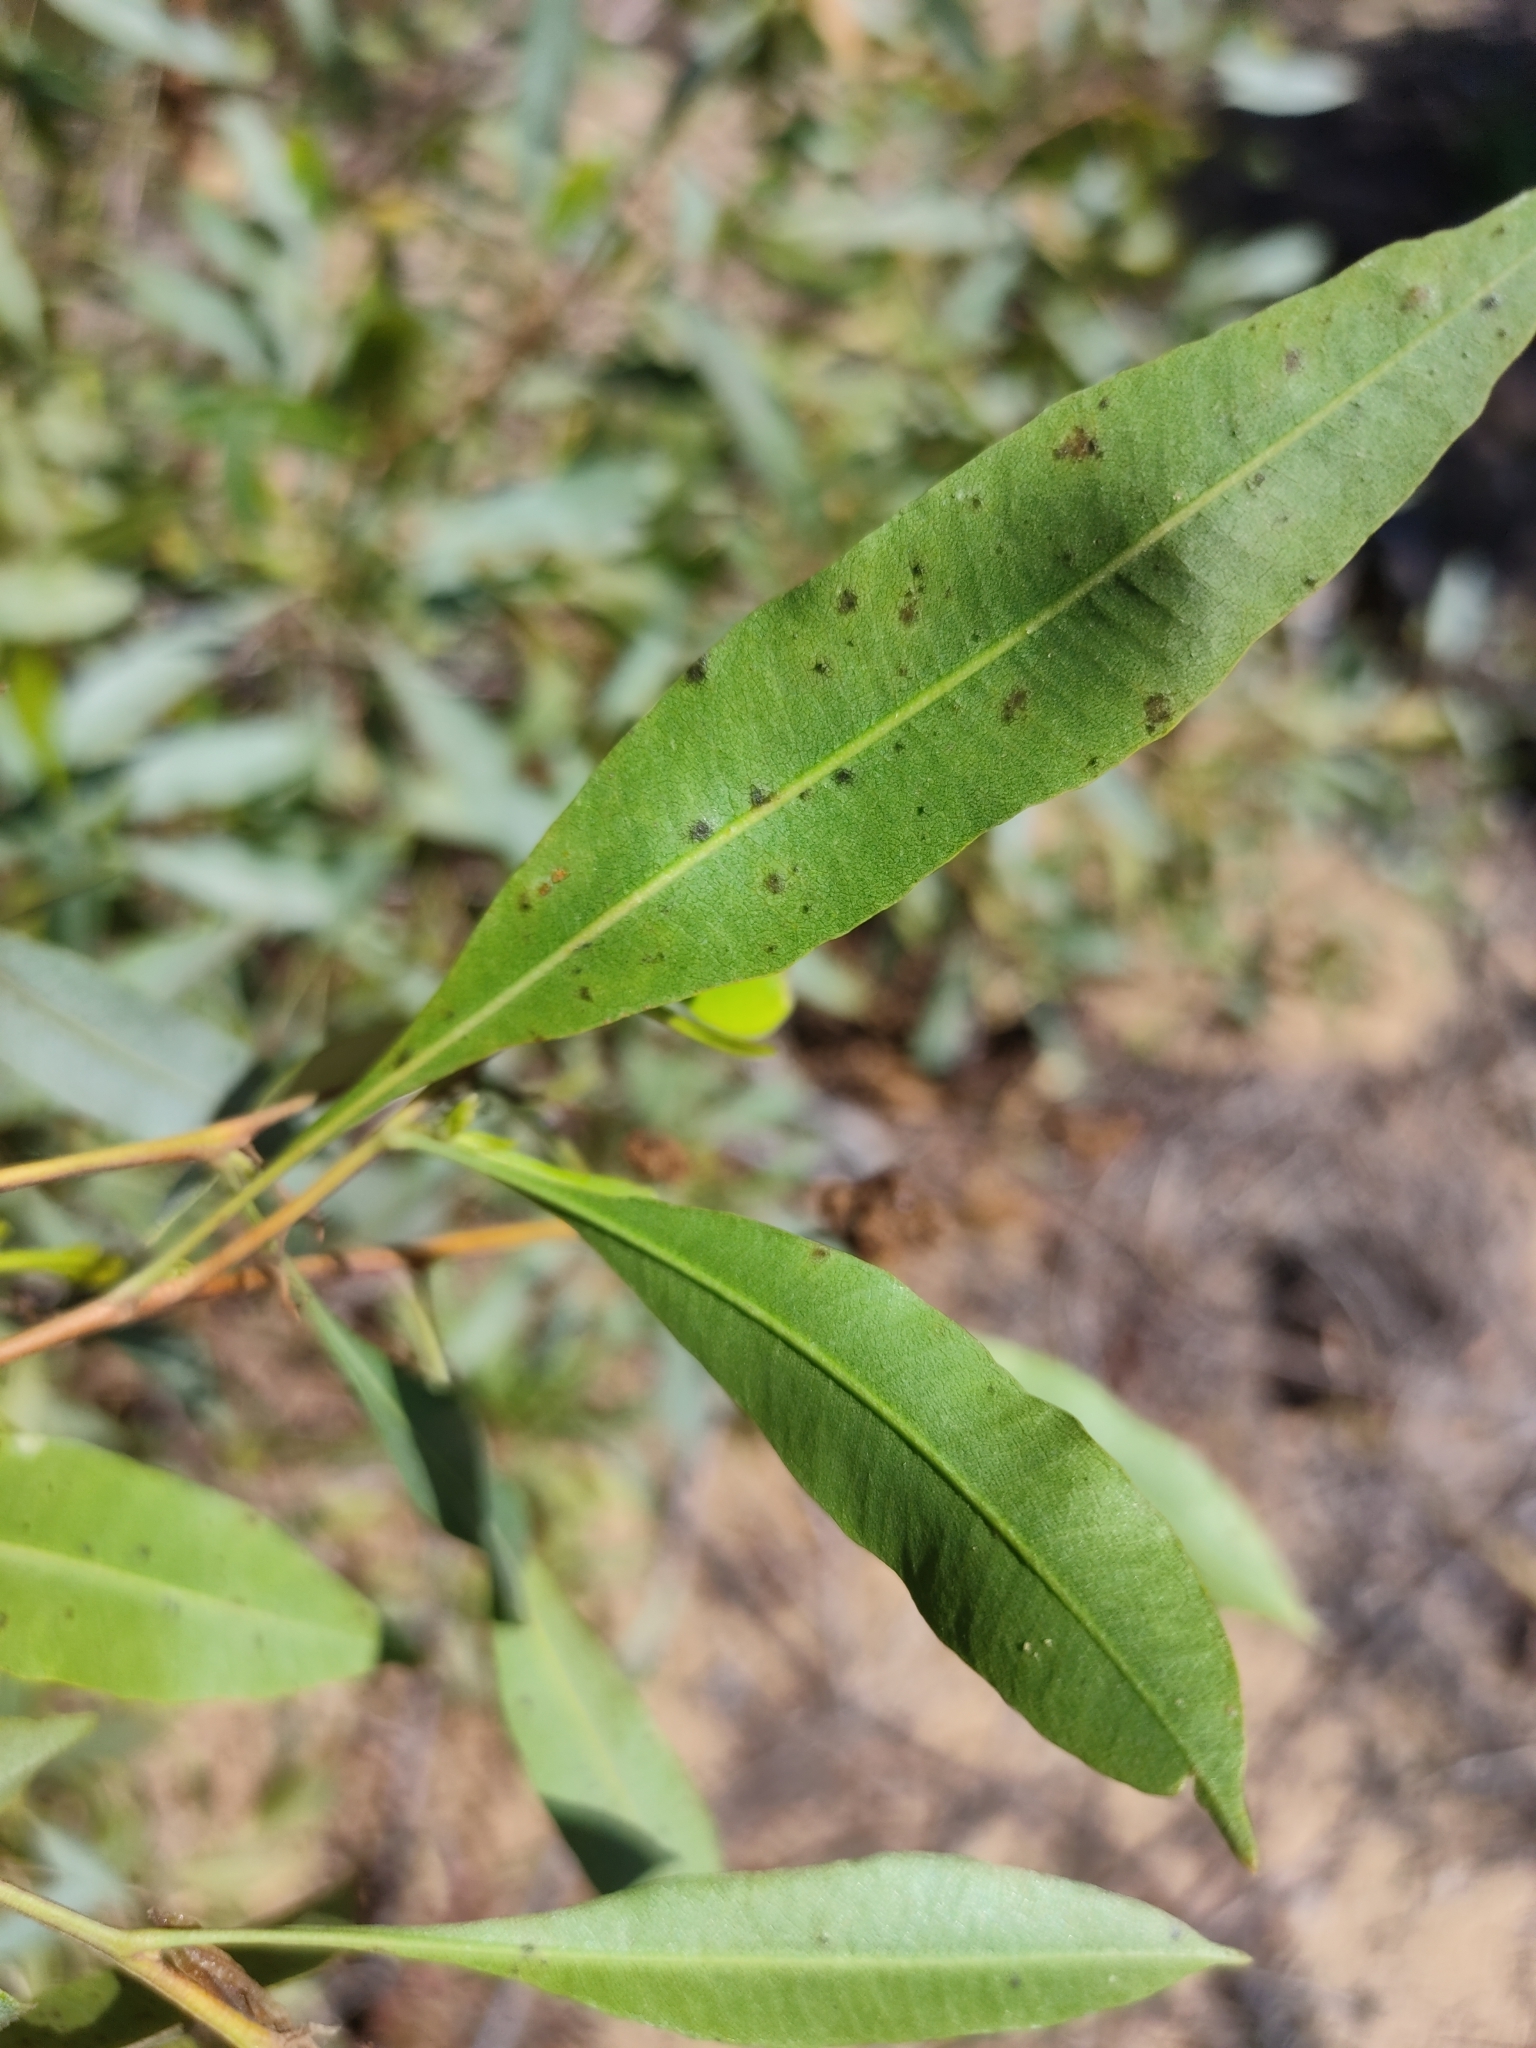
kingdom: Plantae
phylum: Tracheophyta
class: Magnoliopsida
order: Sapindales
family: Sapindaceae
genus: Dodonaea
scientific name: Dodonaea viscosa
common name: Hopbush
